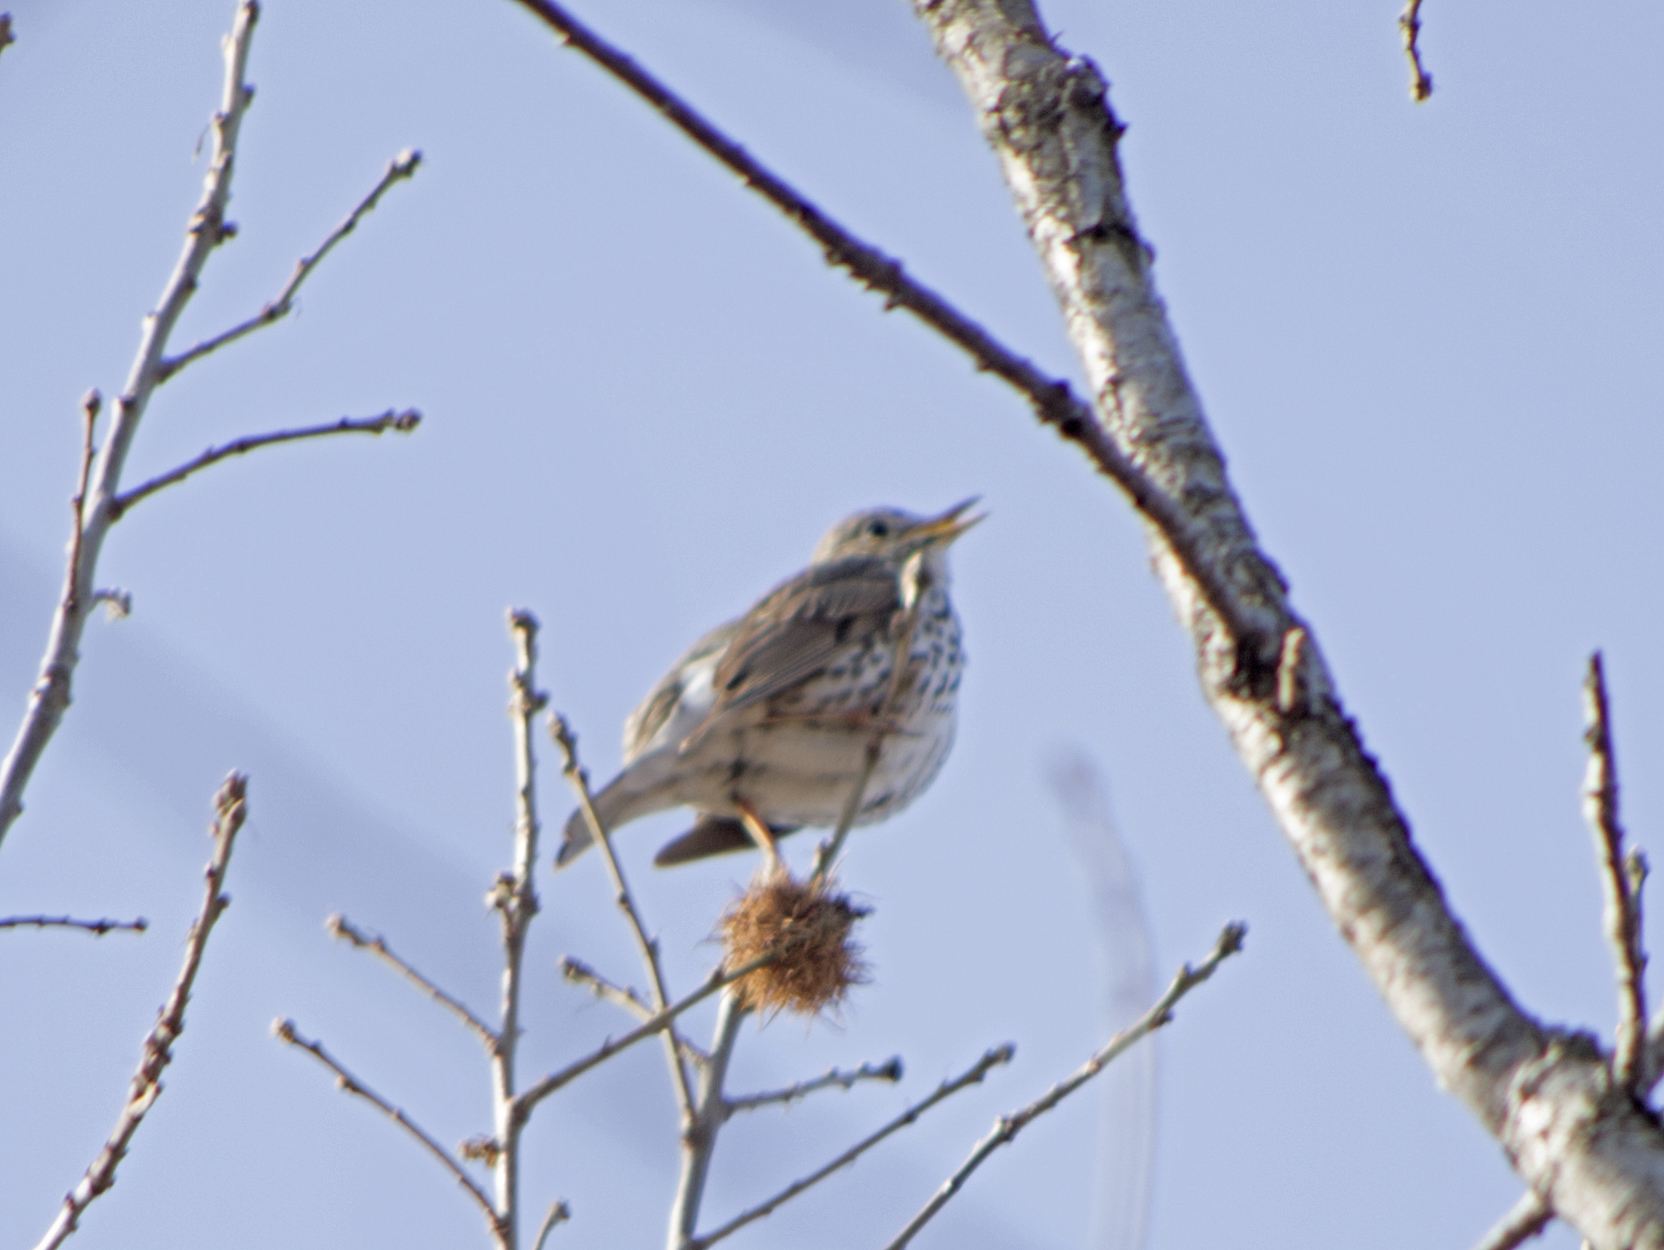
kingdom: Animalia
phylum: Chordata
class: Aves
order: Passeriformes
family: Turdidae
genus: Turdus
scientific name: Turdus philomelos
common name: Song thrush
